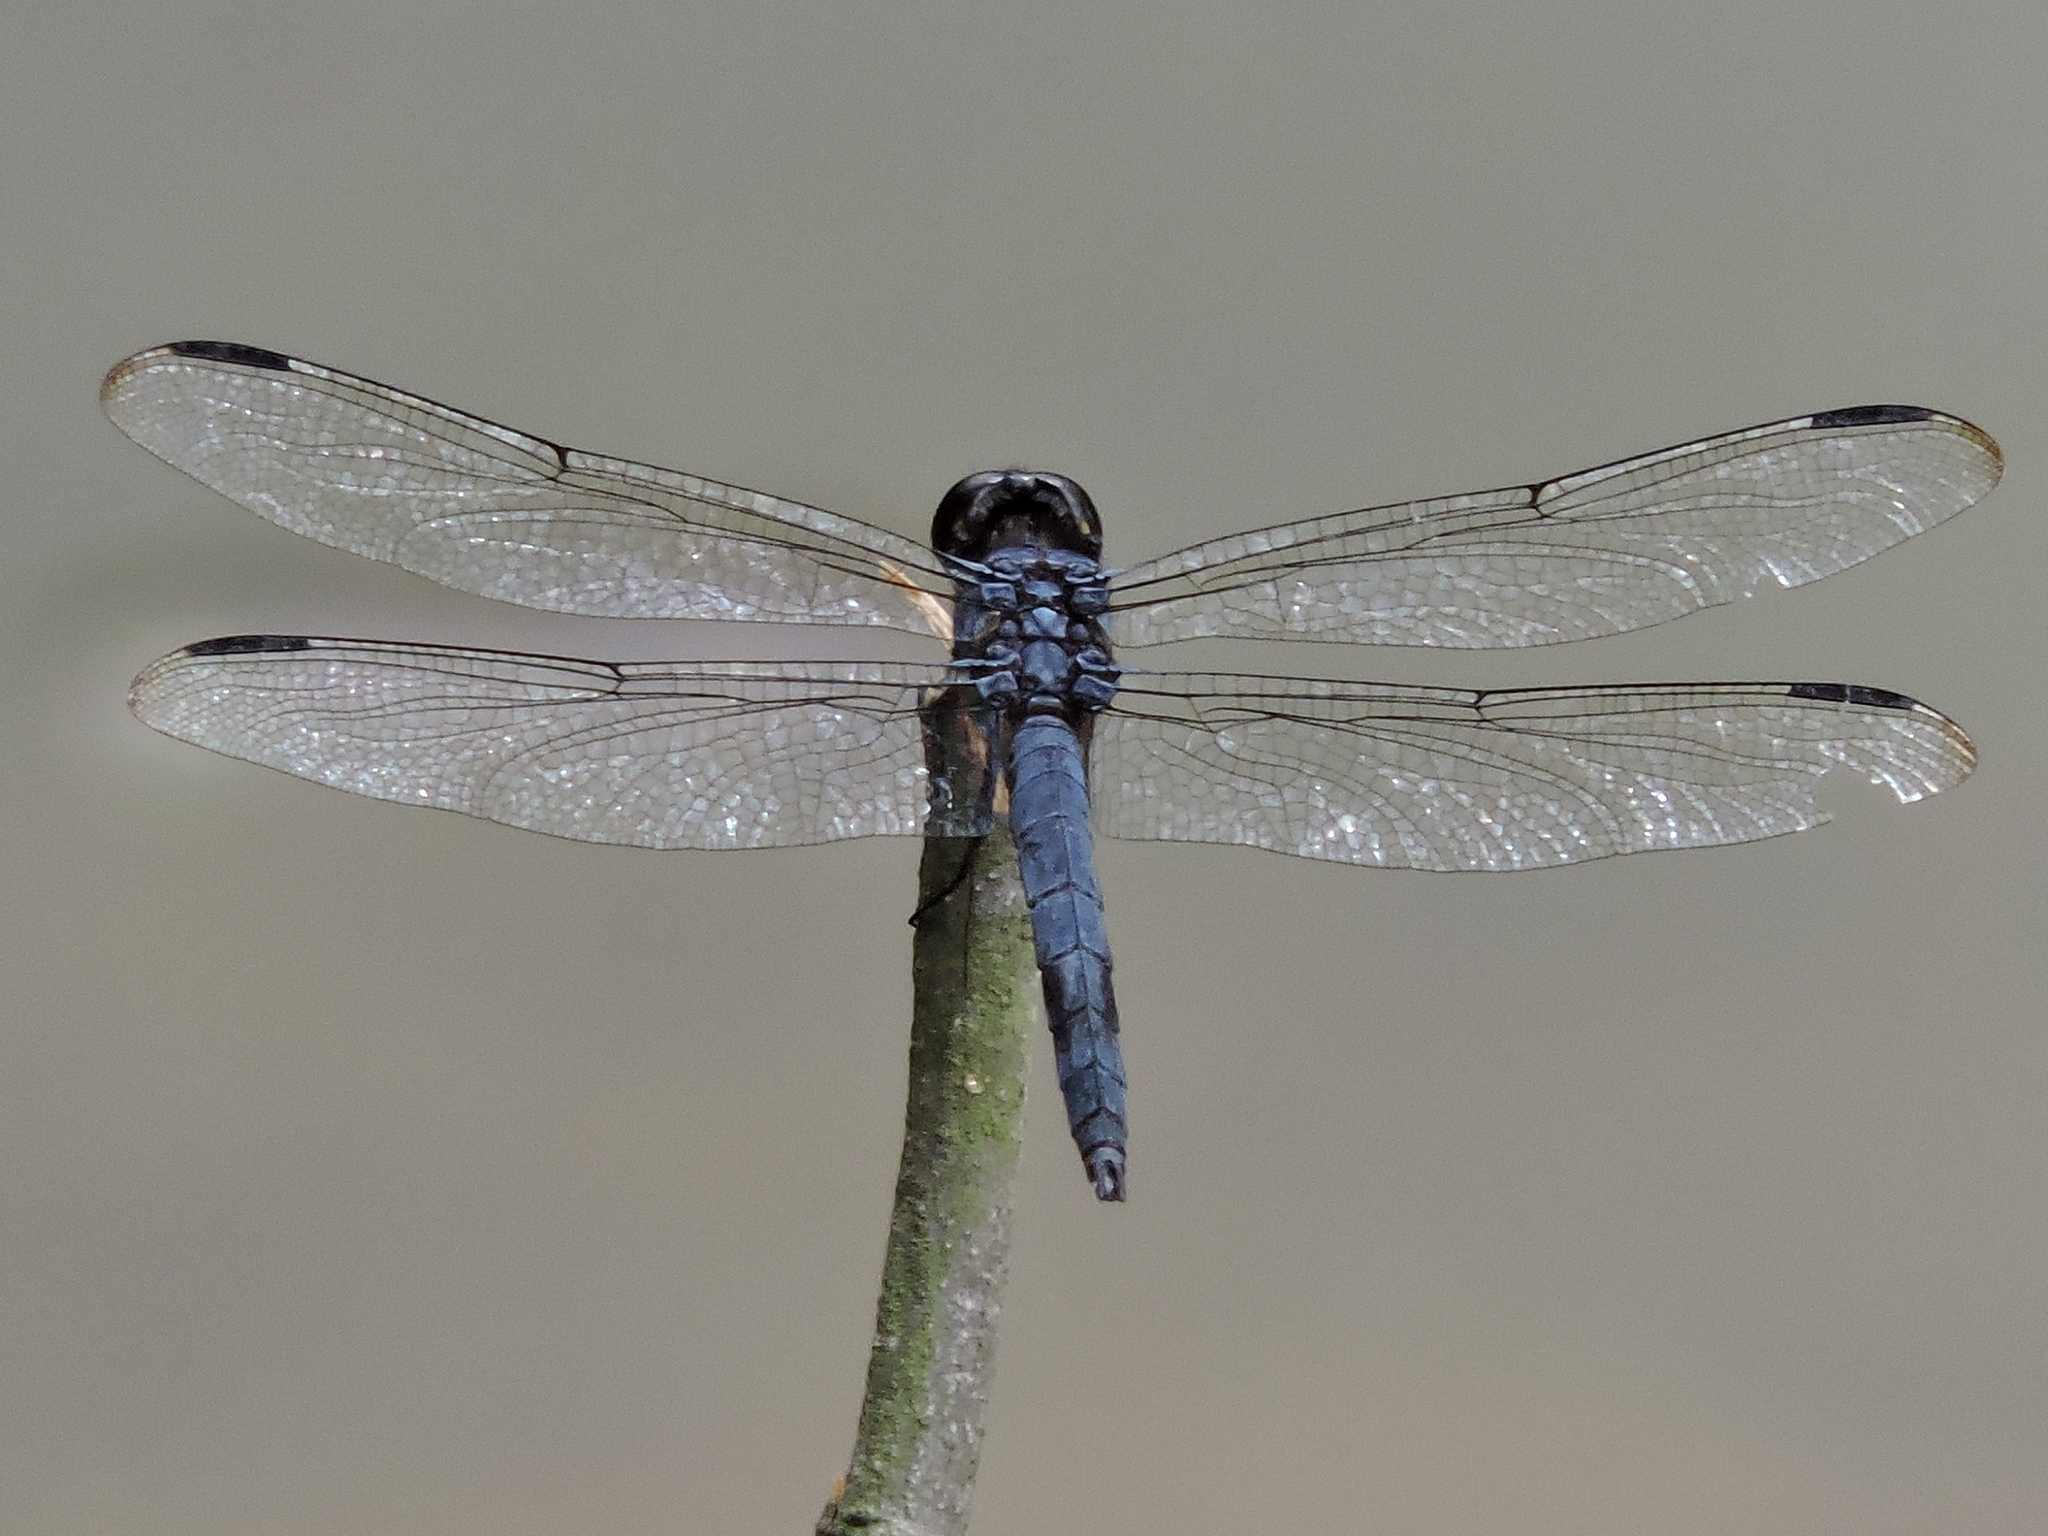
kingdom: Animalia
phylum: Arthropoda
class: Insecta
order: Odonata
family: Libellulidae
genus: Libellula
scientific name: Libellula incesta
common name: Slaty skimmer
